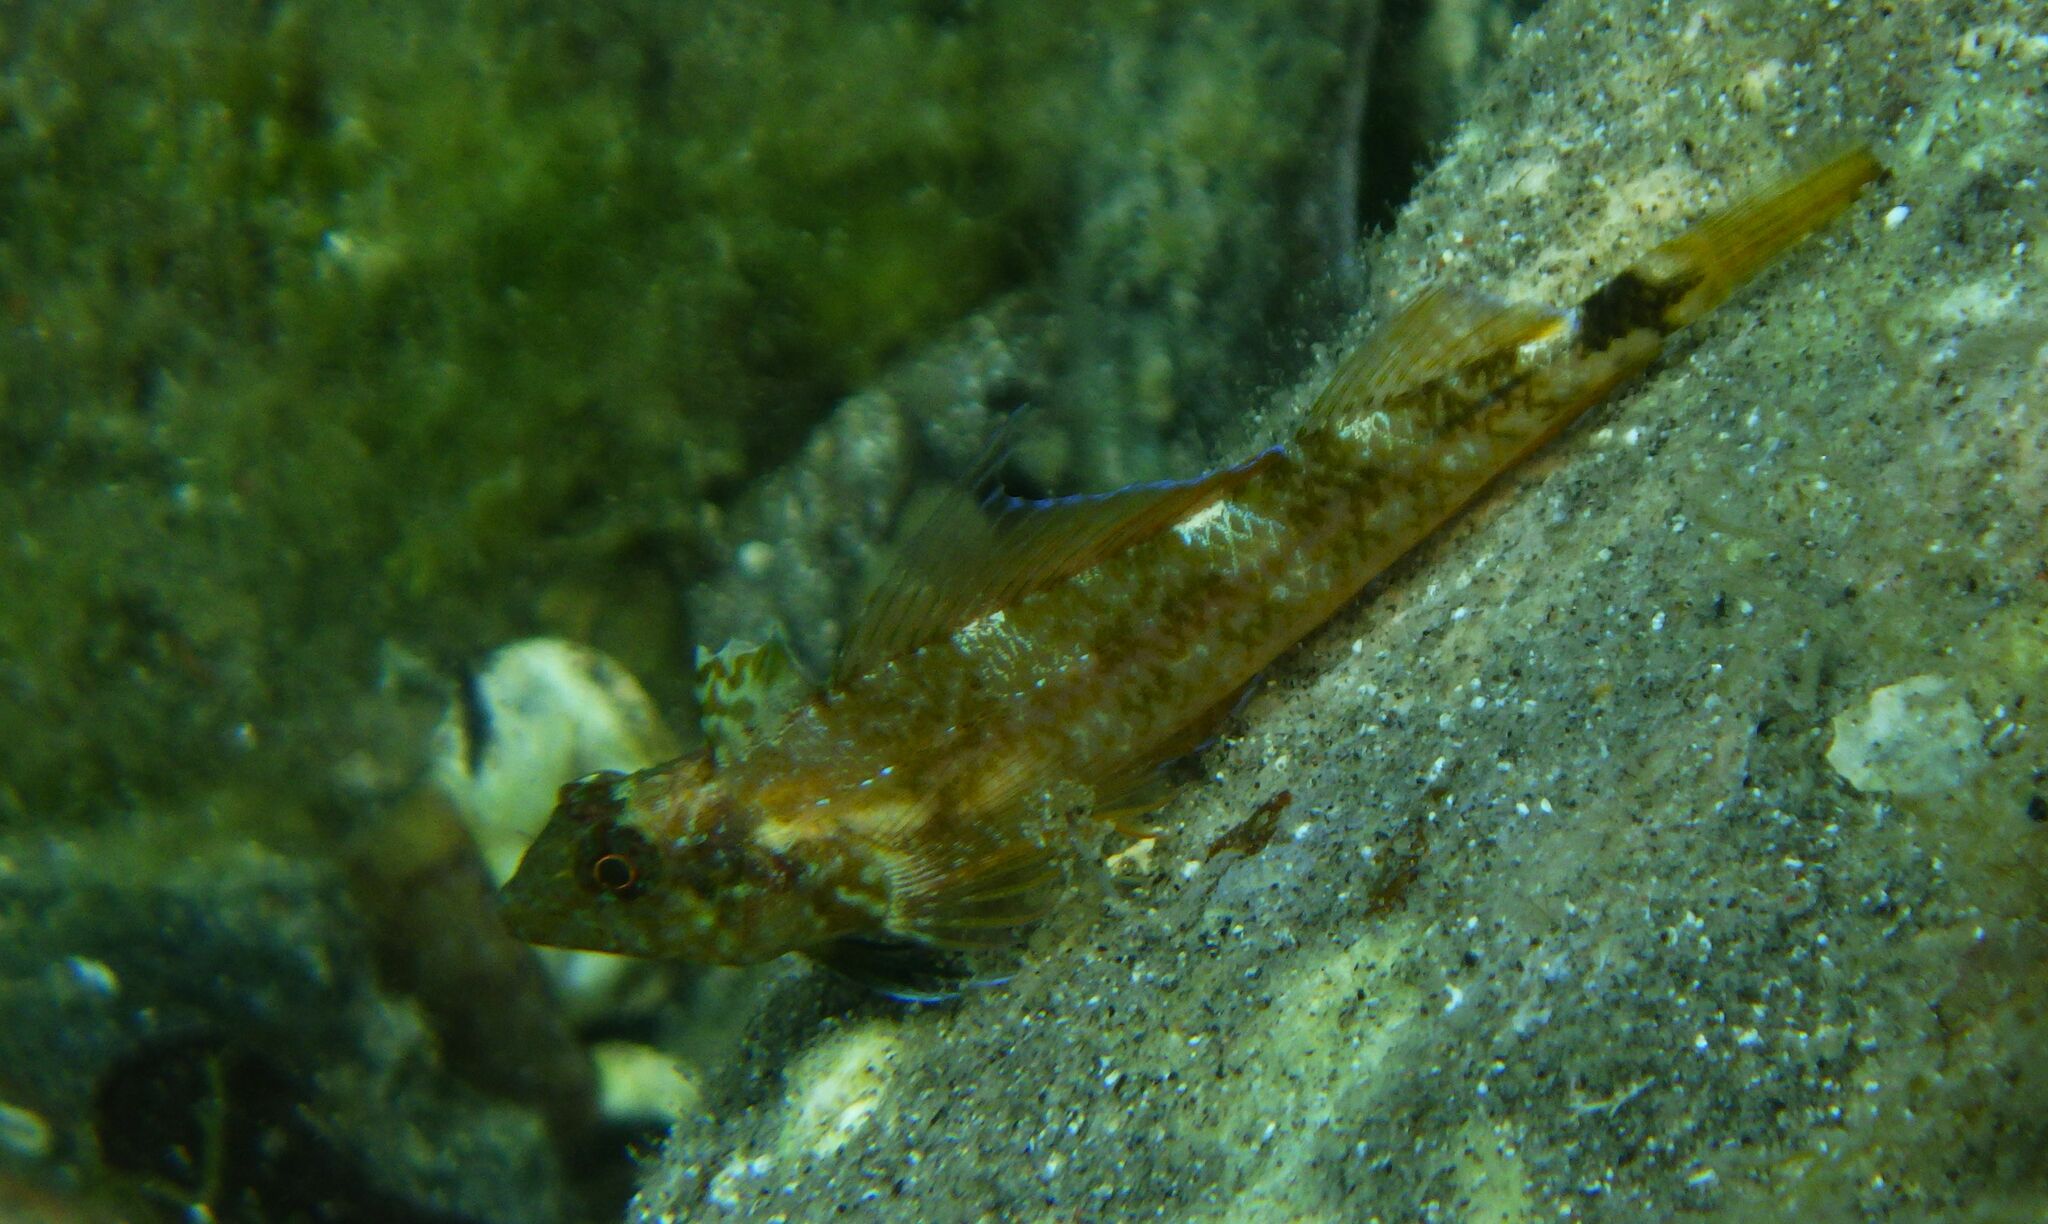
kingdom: Animalia
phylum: Chordata
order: Perciformes
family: Tripterygiidae
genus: Tripterygion
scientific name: Tripterygion delaisi
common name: Black-face blenny
